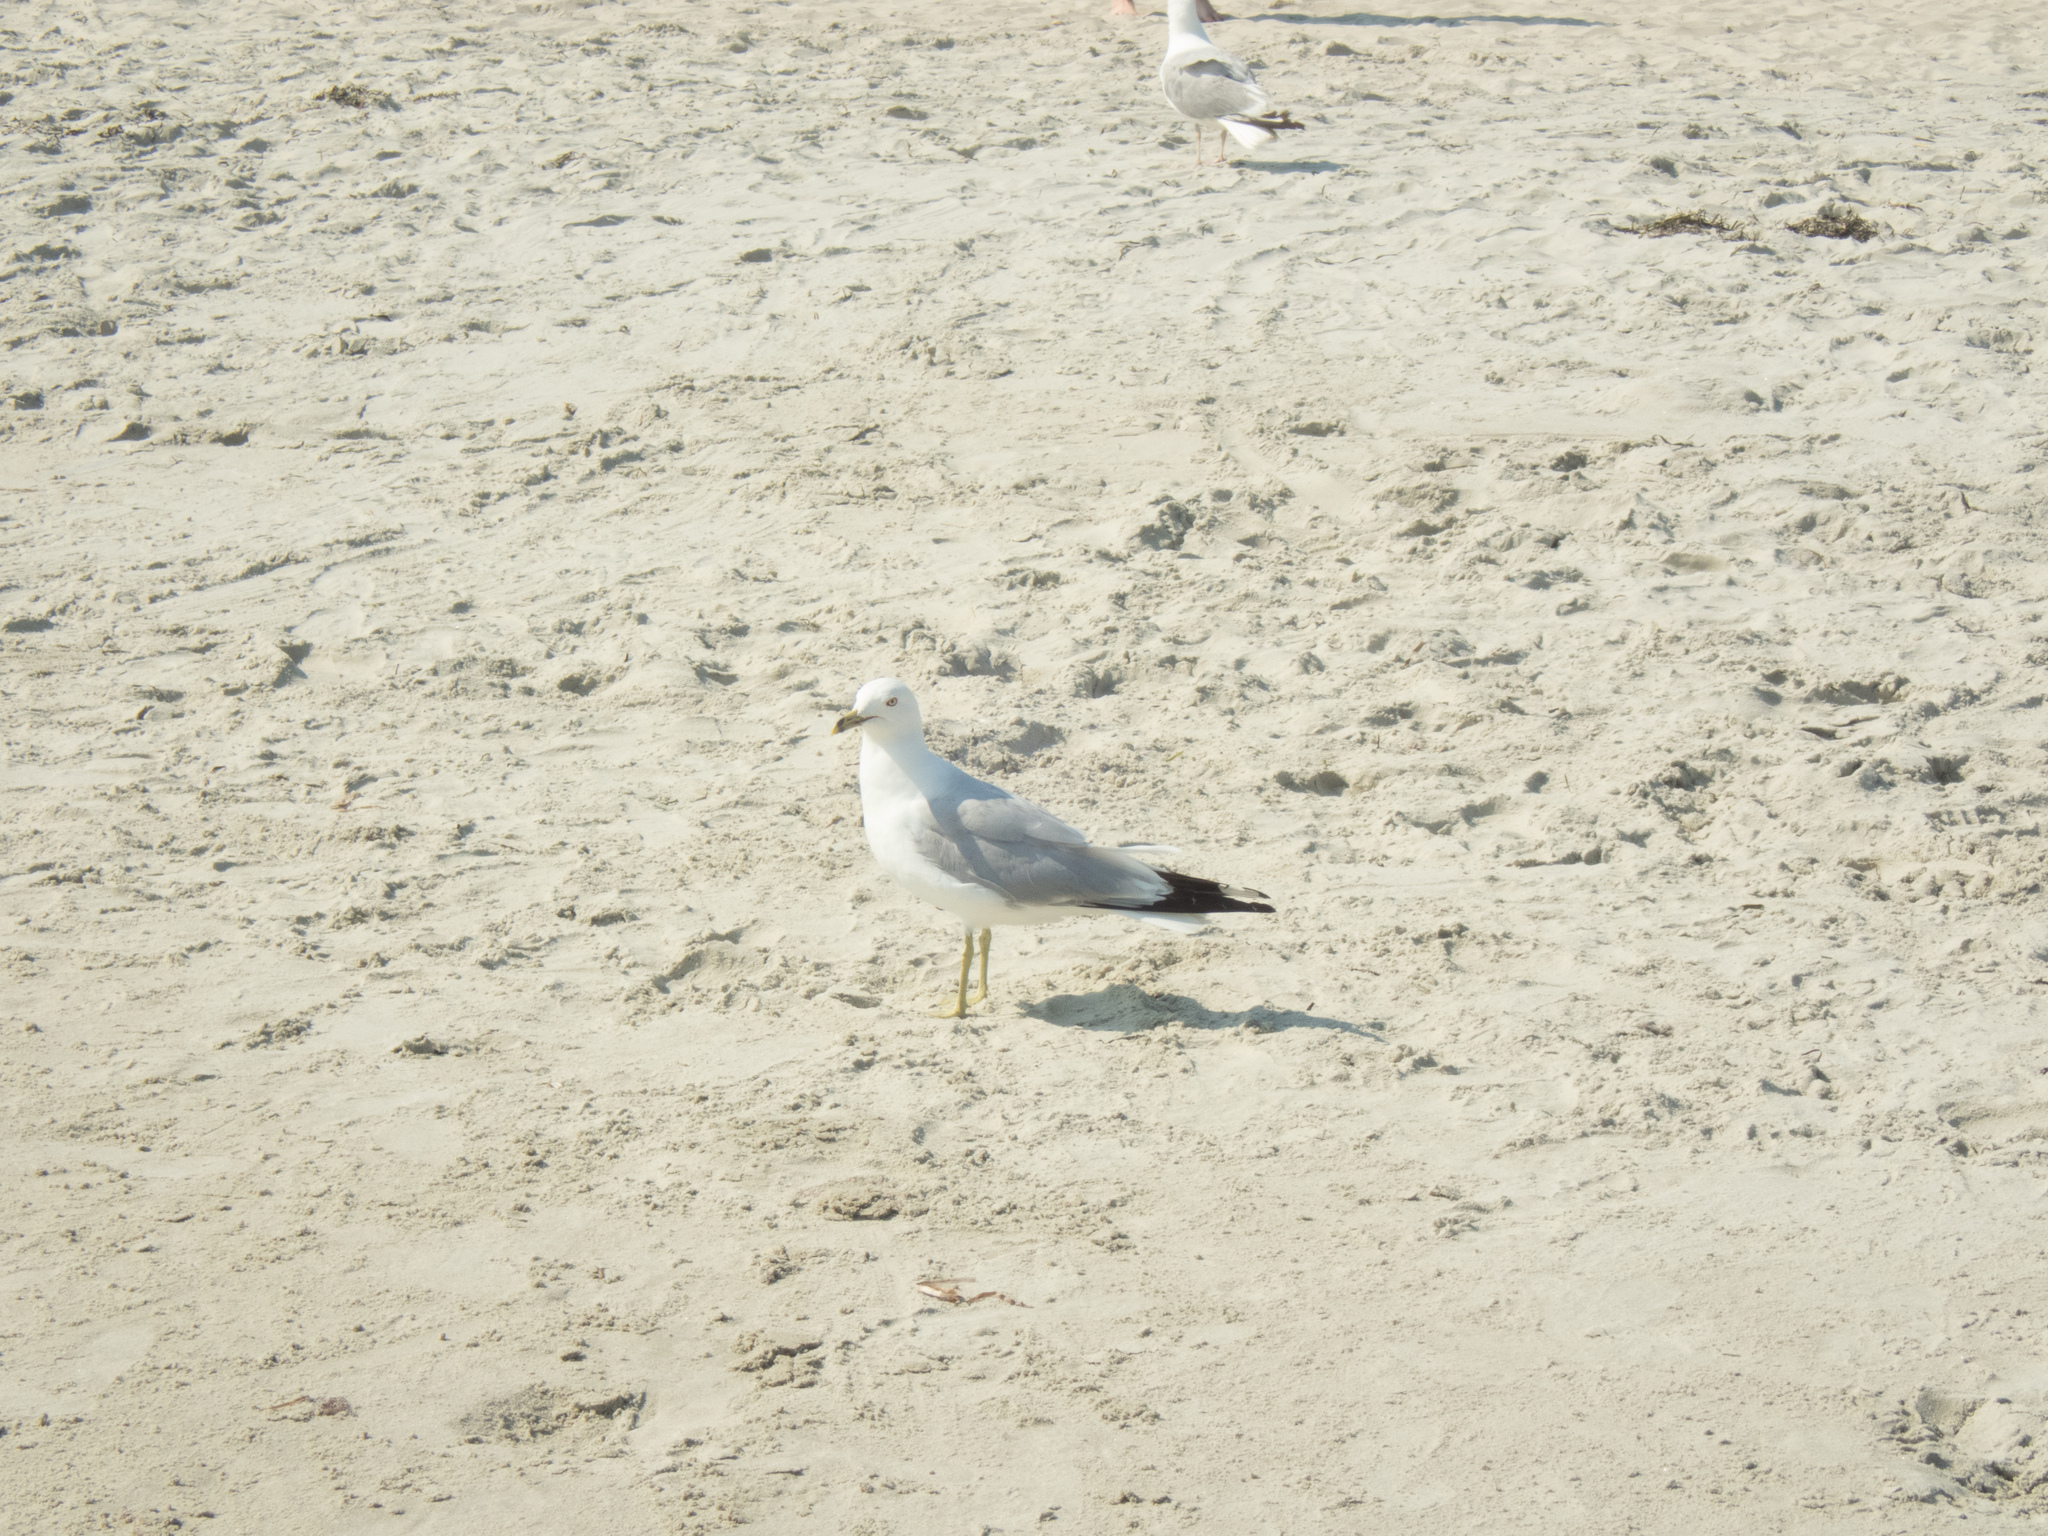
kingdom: Animalia
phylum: Chordata
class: Aves
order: Charadriiformes
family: Laridae
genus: Larus
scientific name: Larus delawarensis
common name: Ring-billed gull
